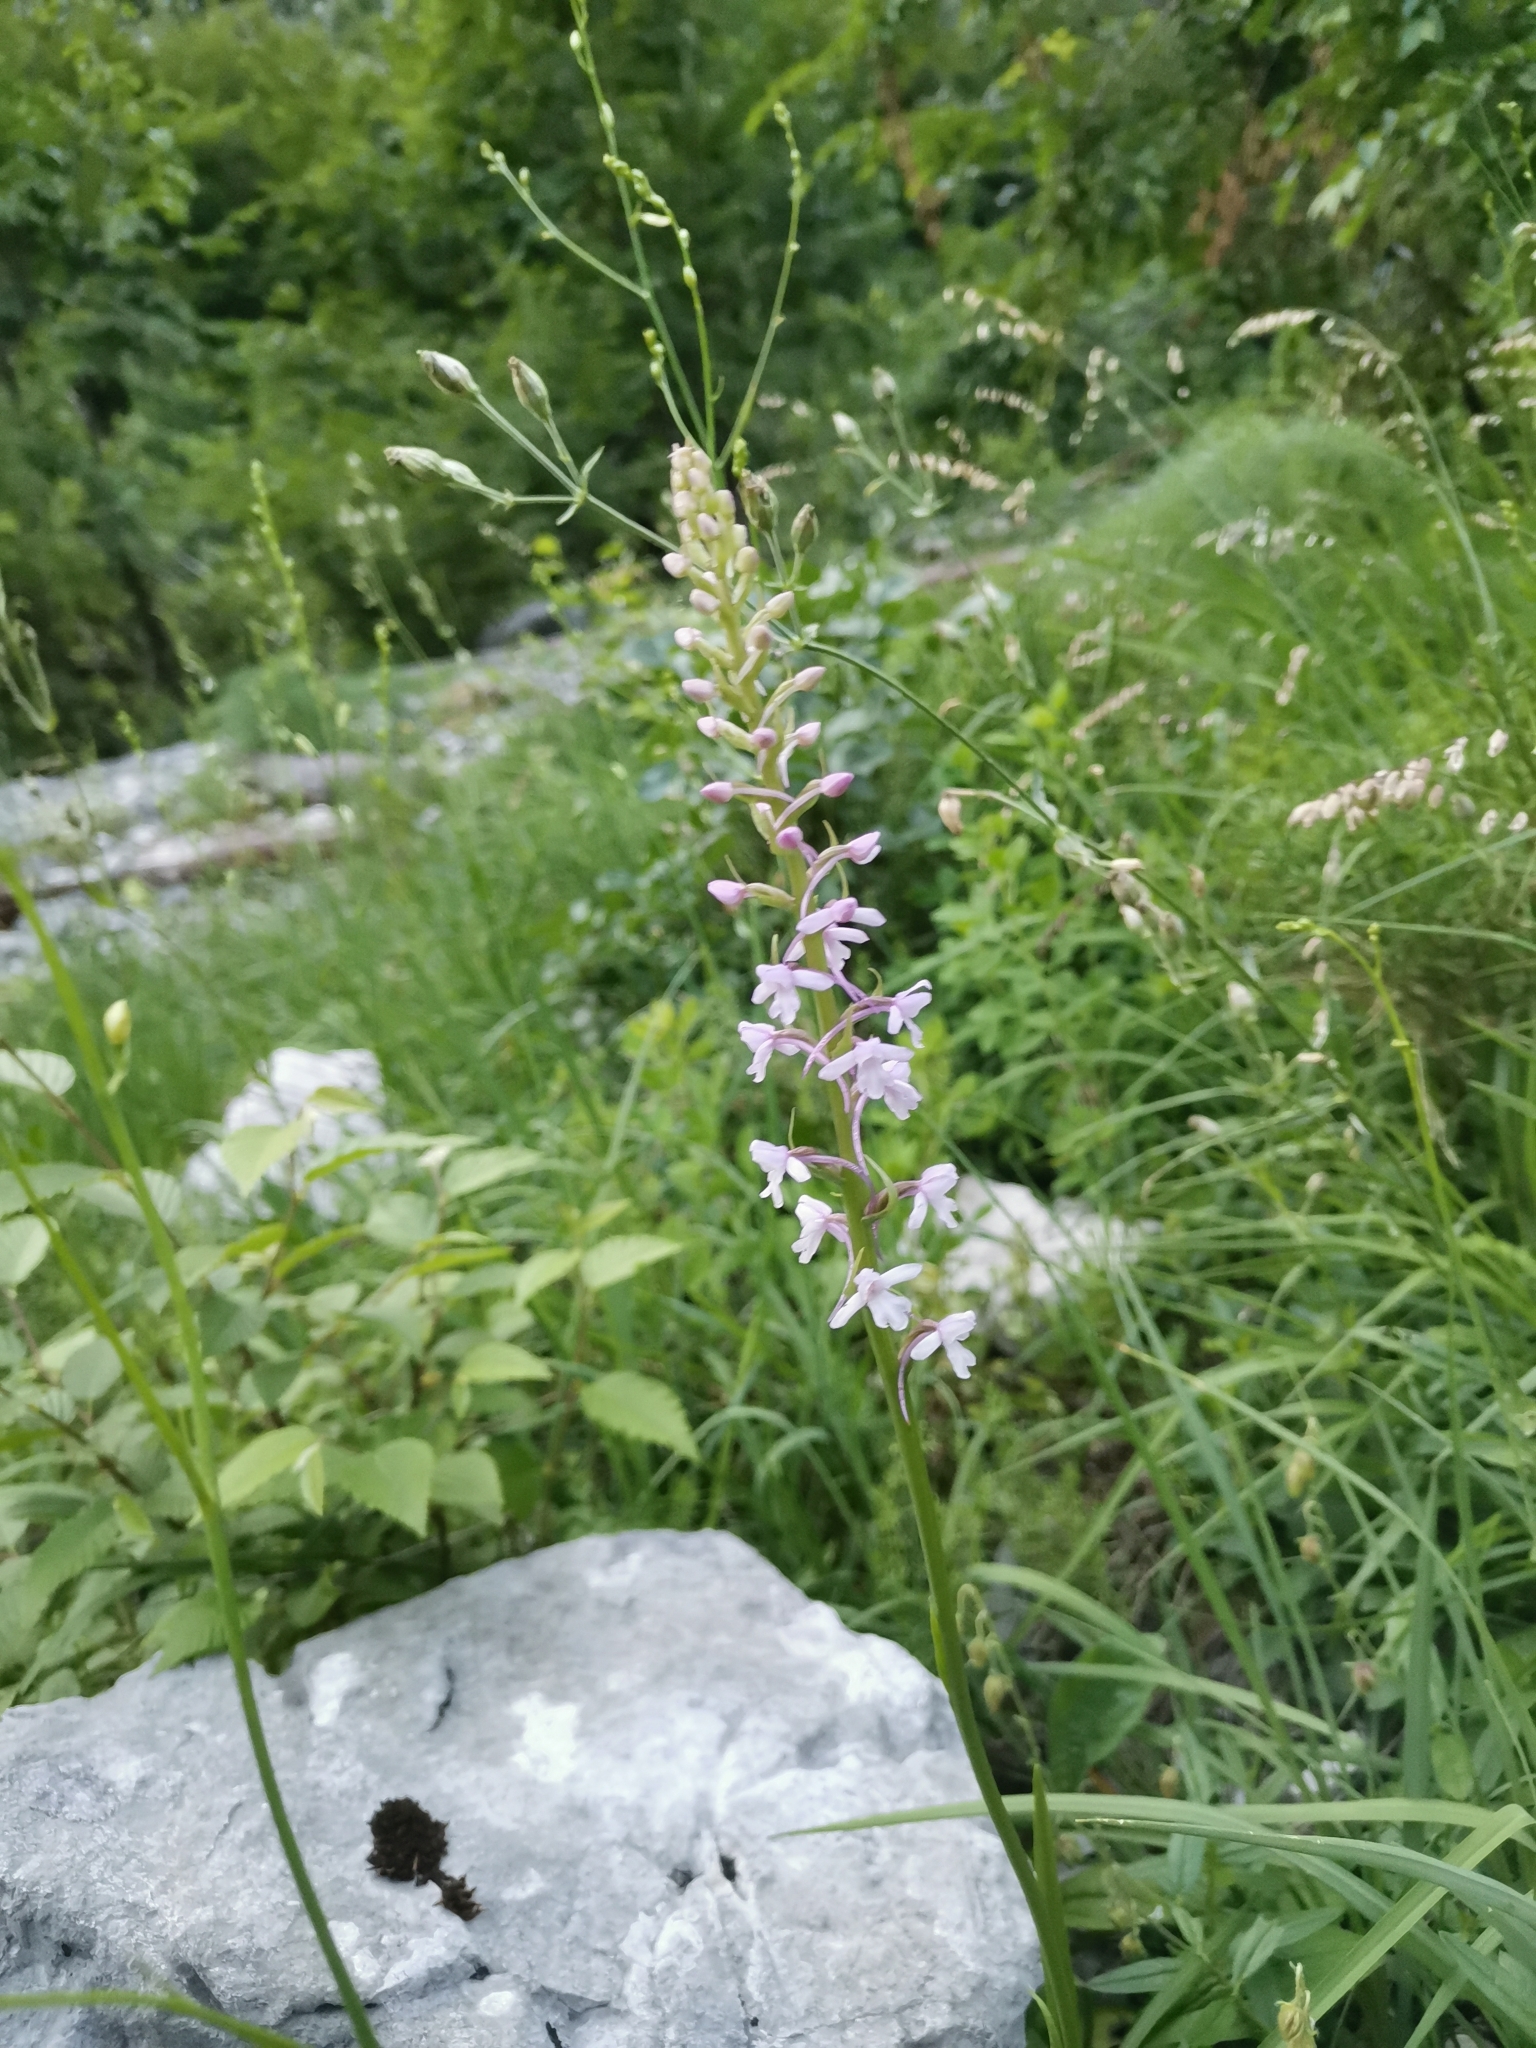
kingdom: Plantae
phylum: Tracheophyta
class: Liliopsida
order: Asparagales
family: Orchidaceae
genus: Gymnadenia
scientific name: Gymnadenia conopsea
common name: Fragrant orchid
